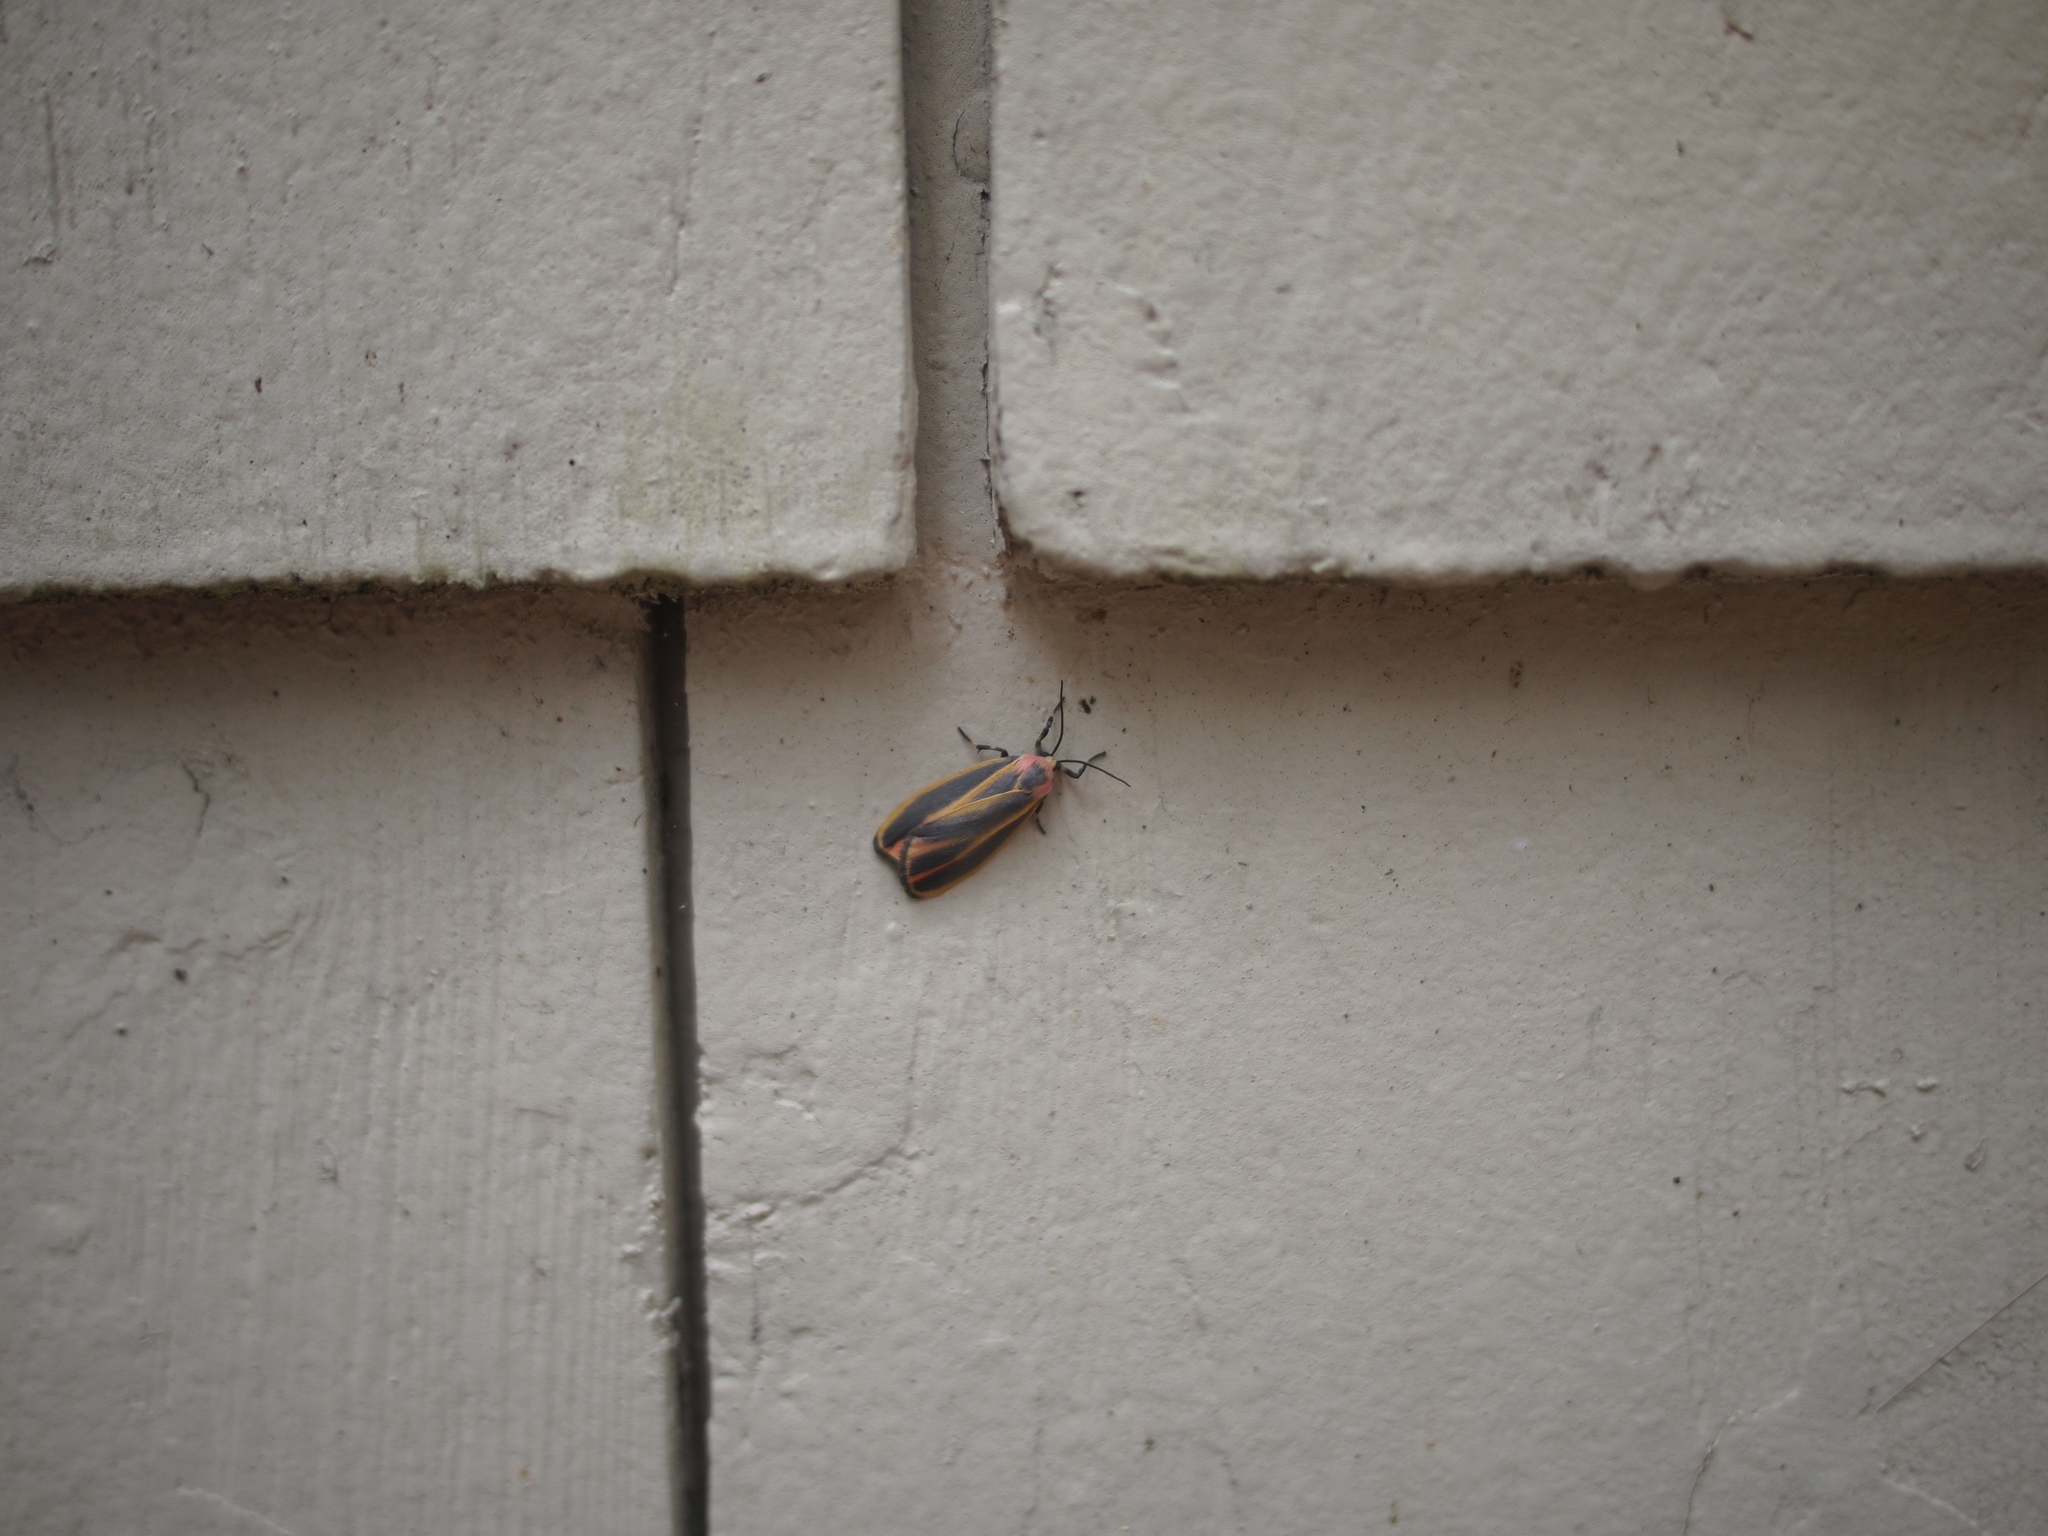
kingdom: Animalia
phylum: Arthropoda
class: Insecta
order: Lepidoptera
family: Erebidae
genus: Hypoprepia
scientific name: Hypoprepia fucosa
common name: Painted lichen moth
